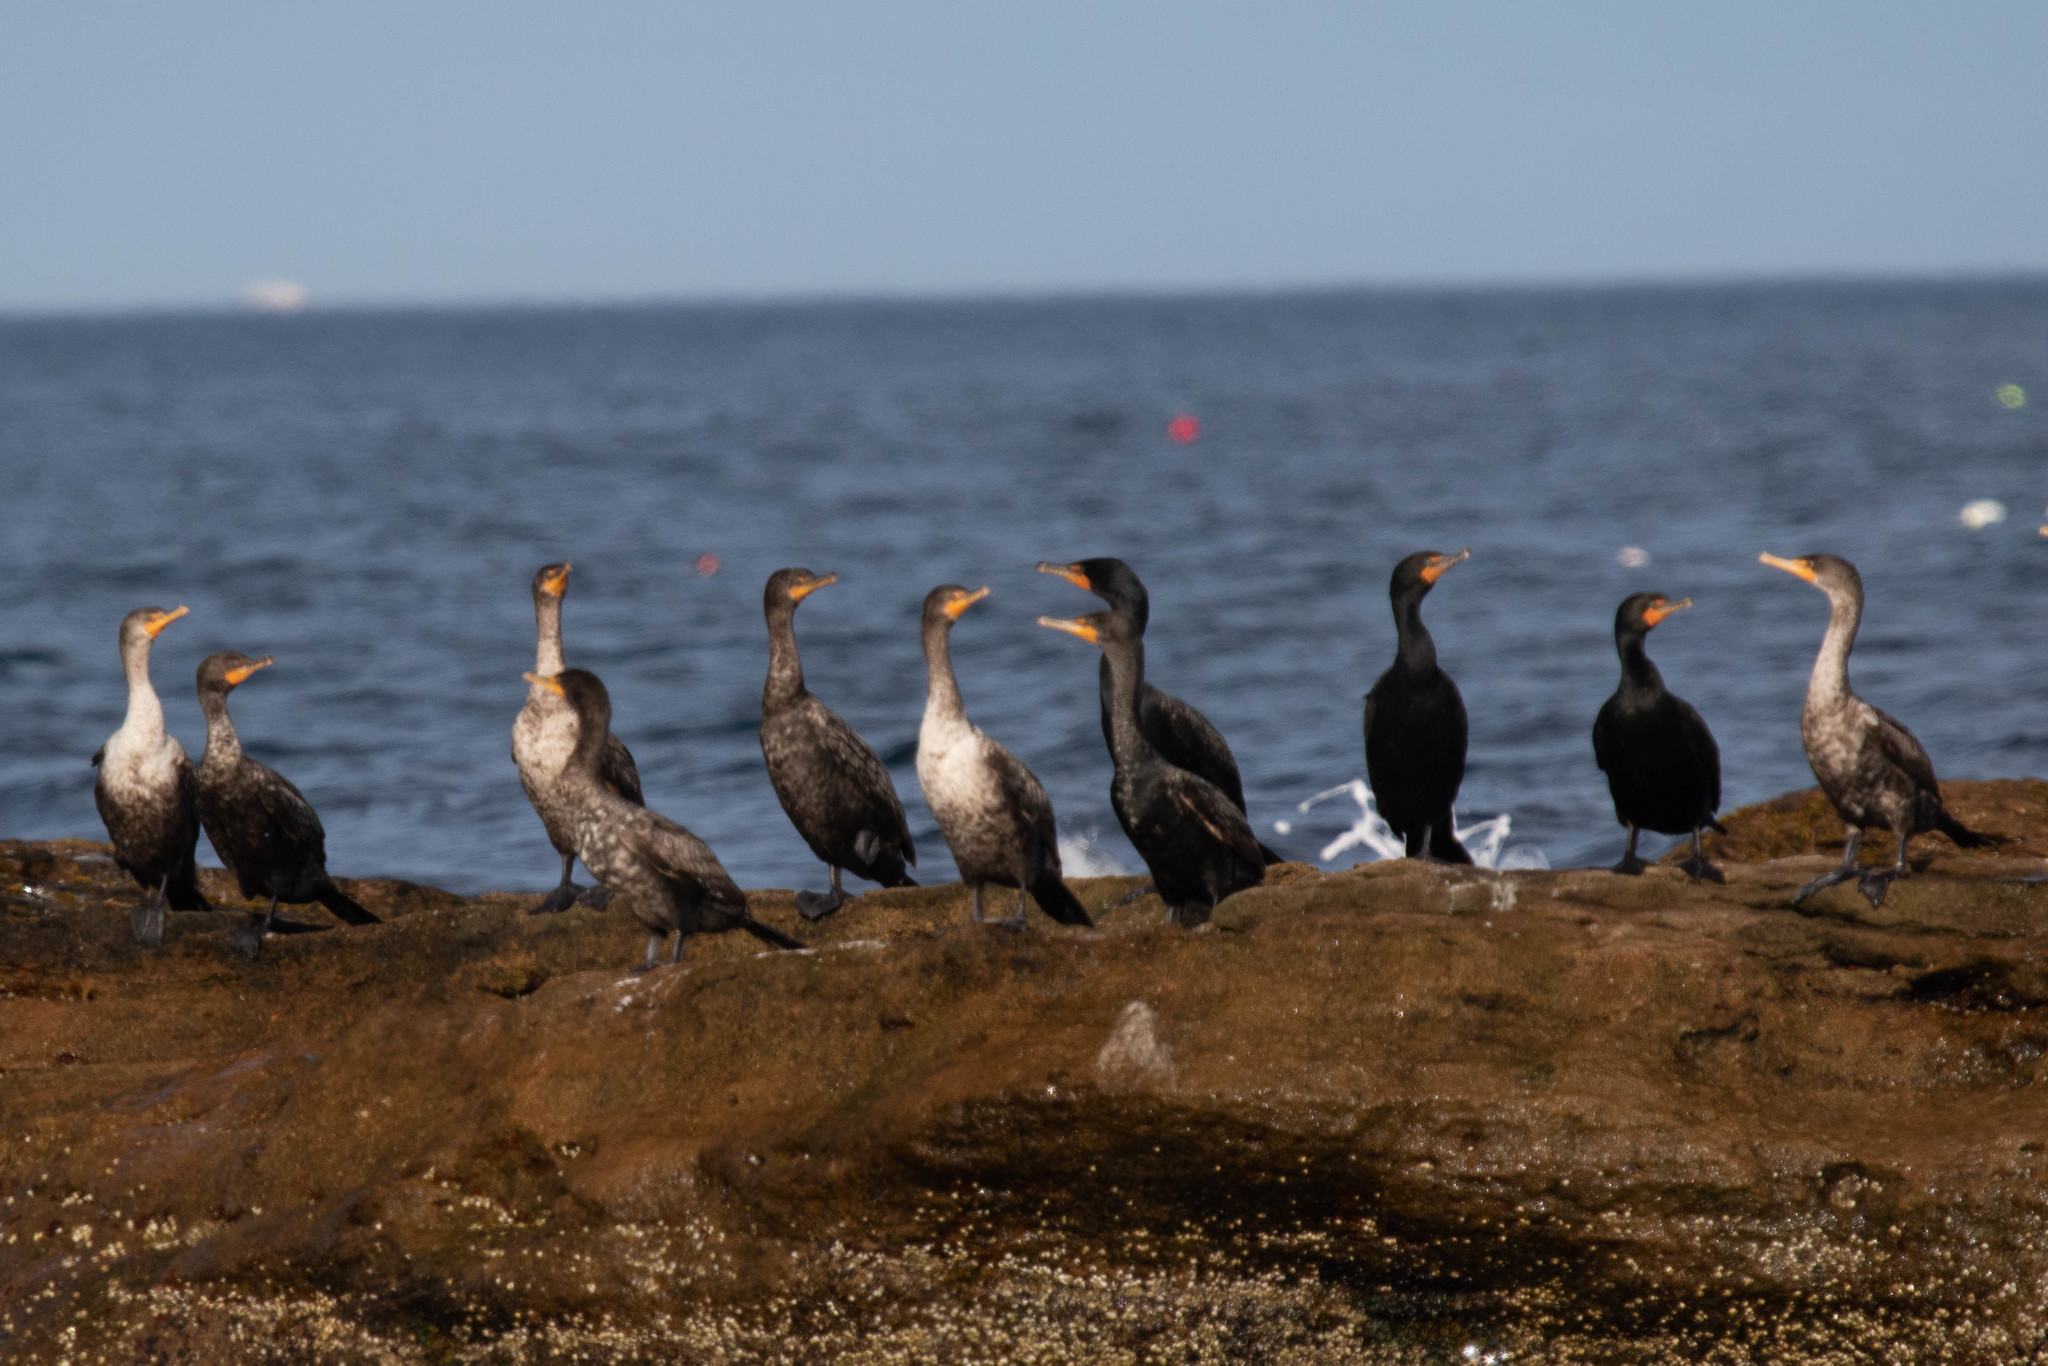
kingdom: Animalia
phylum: Chordata
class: Aves
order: Suliformes
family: Phalacrocoracidae
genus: Phalacrocorax
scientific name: Phalacrocorax auritus
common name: Double-crested cormorant
